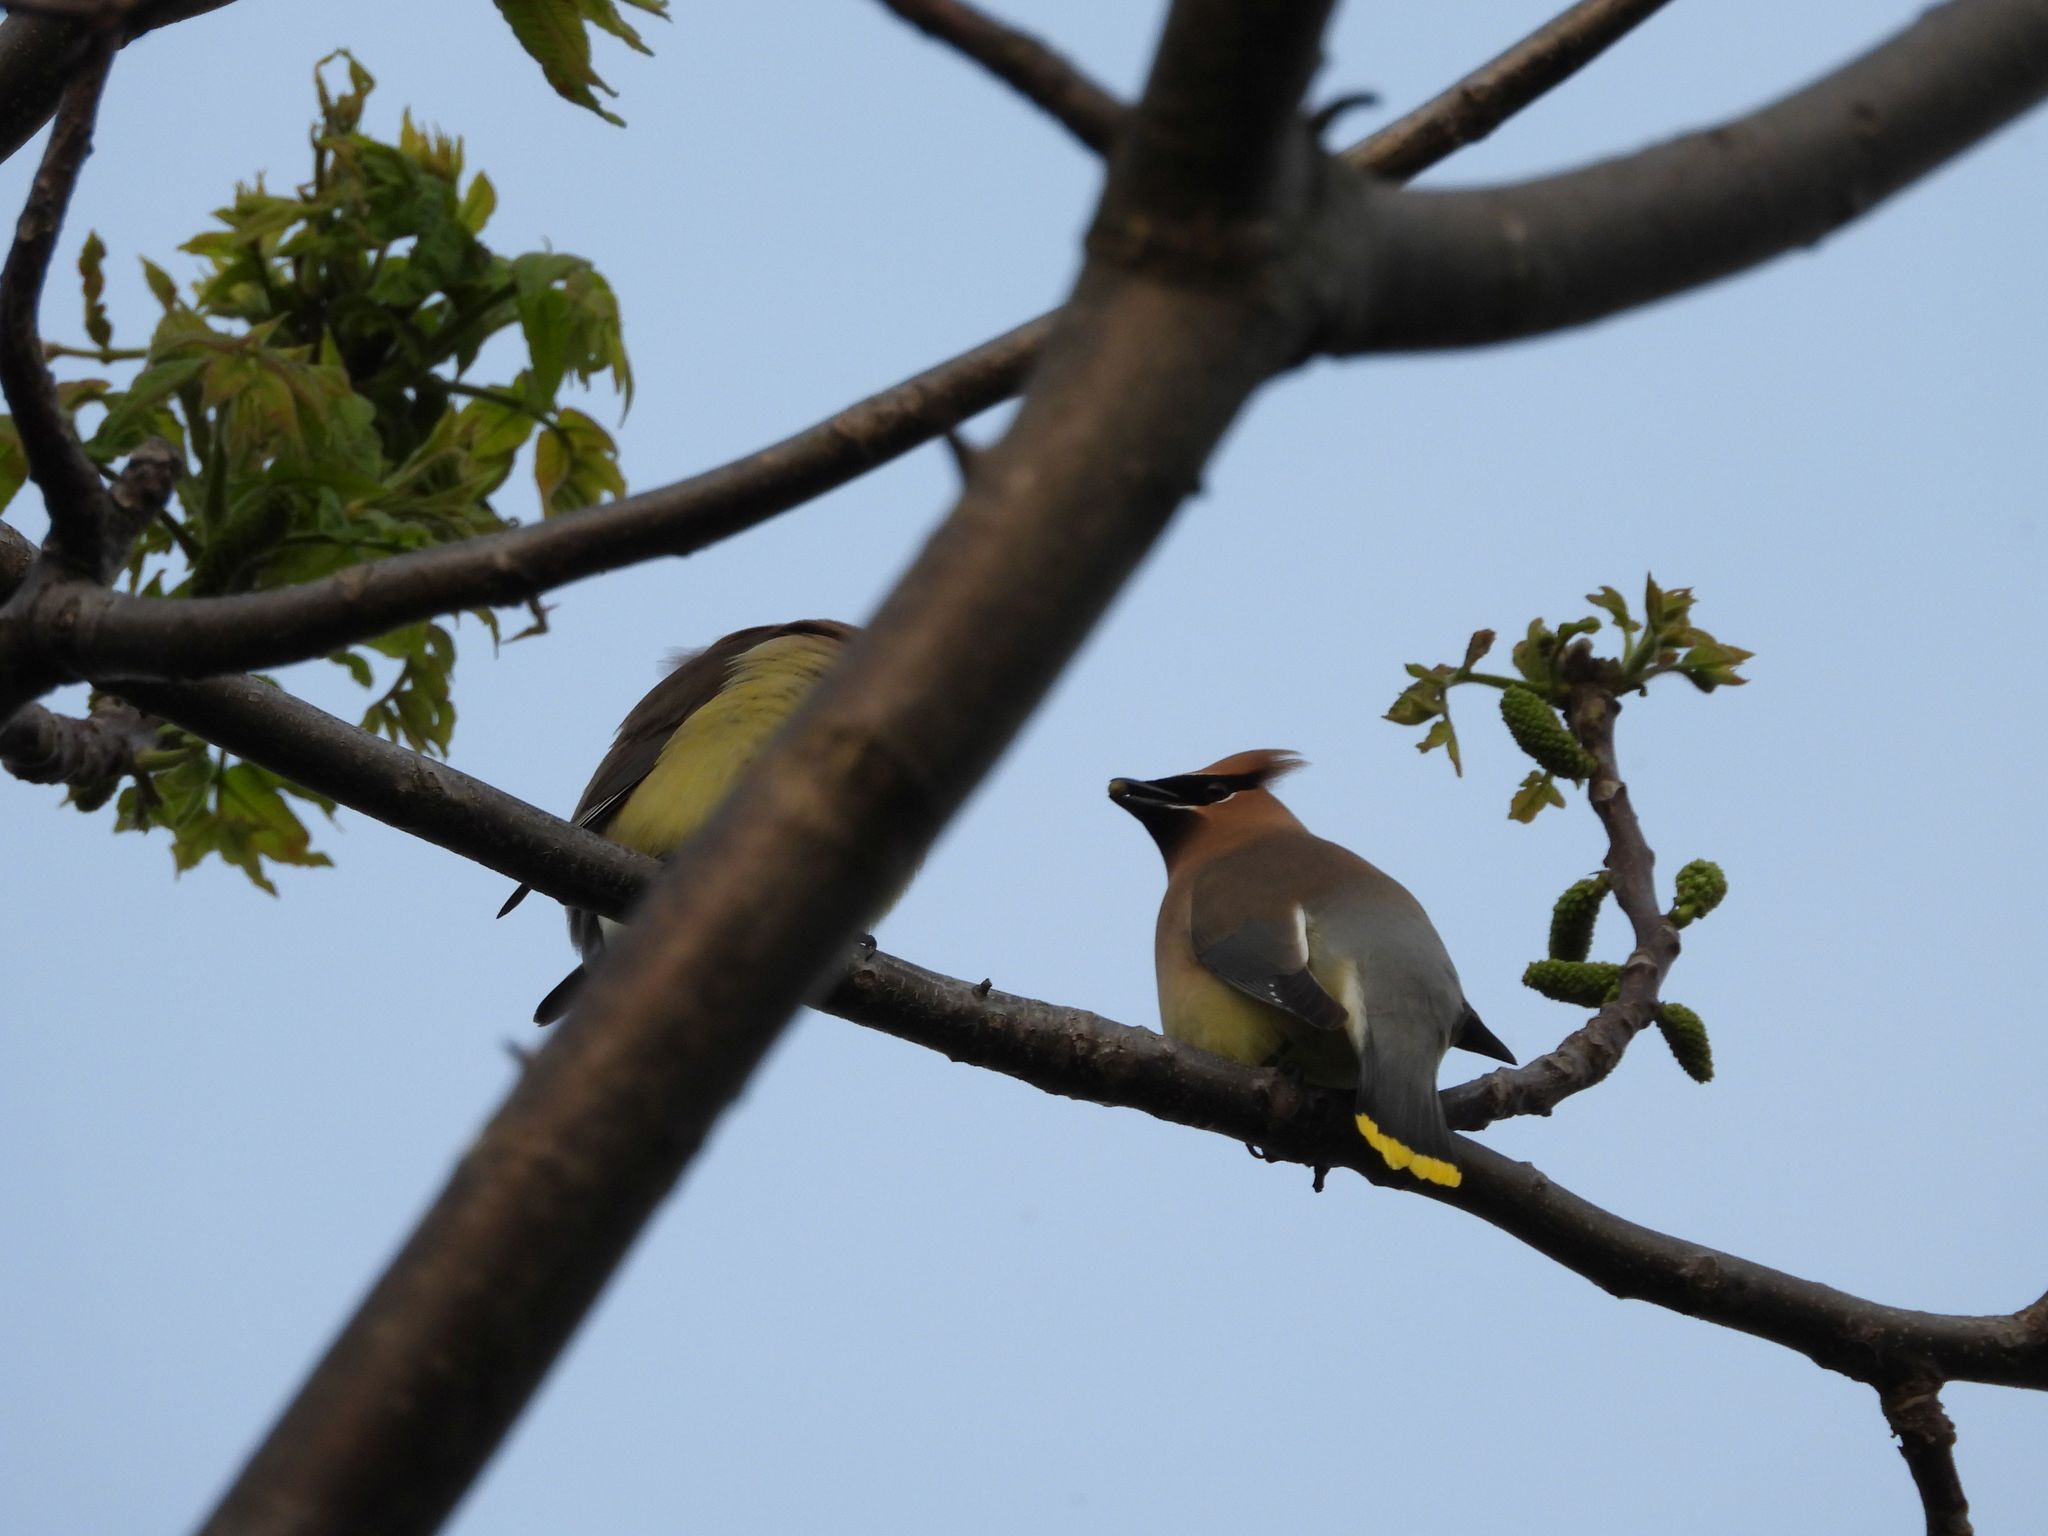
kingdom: Animalia
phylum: Chordata
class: Aves
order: Passeriformes
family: Bombycillidae
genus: Bombycilla
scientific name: Bombycilla cedrorum
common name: Cedar waxwing
